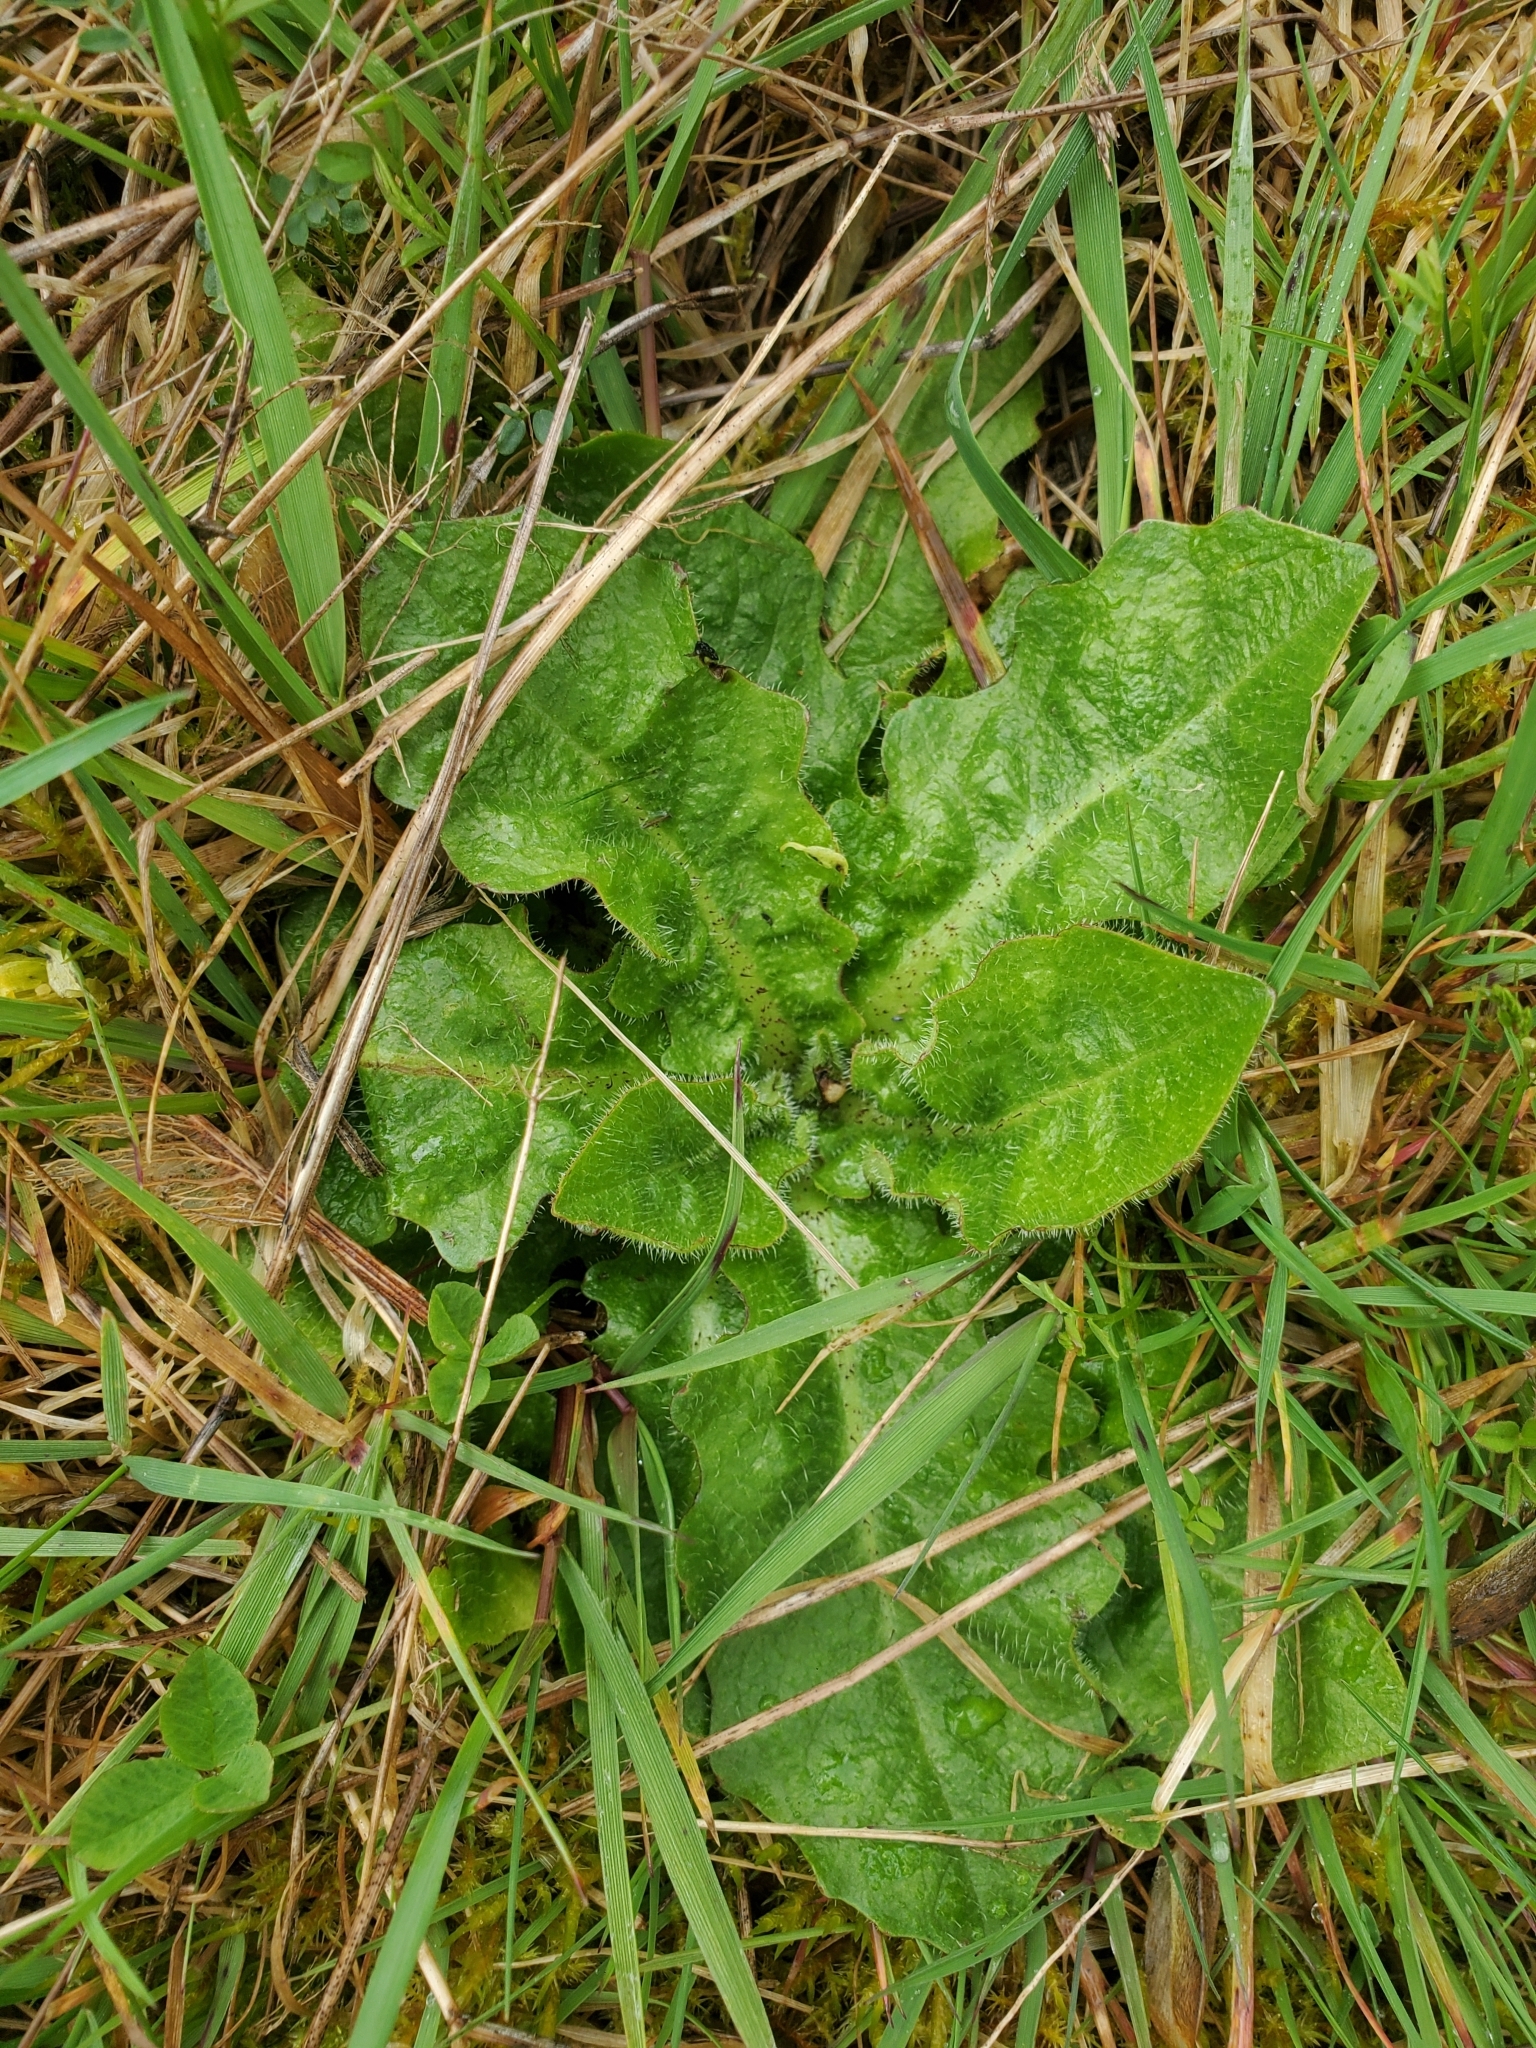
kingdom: Plantae
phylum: Tracheophyta
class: Magnoliopsida
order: Asterales
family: Asteraceae
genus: Hypochaeris
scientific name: Hypochaeris radicata
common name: Flatweed
